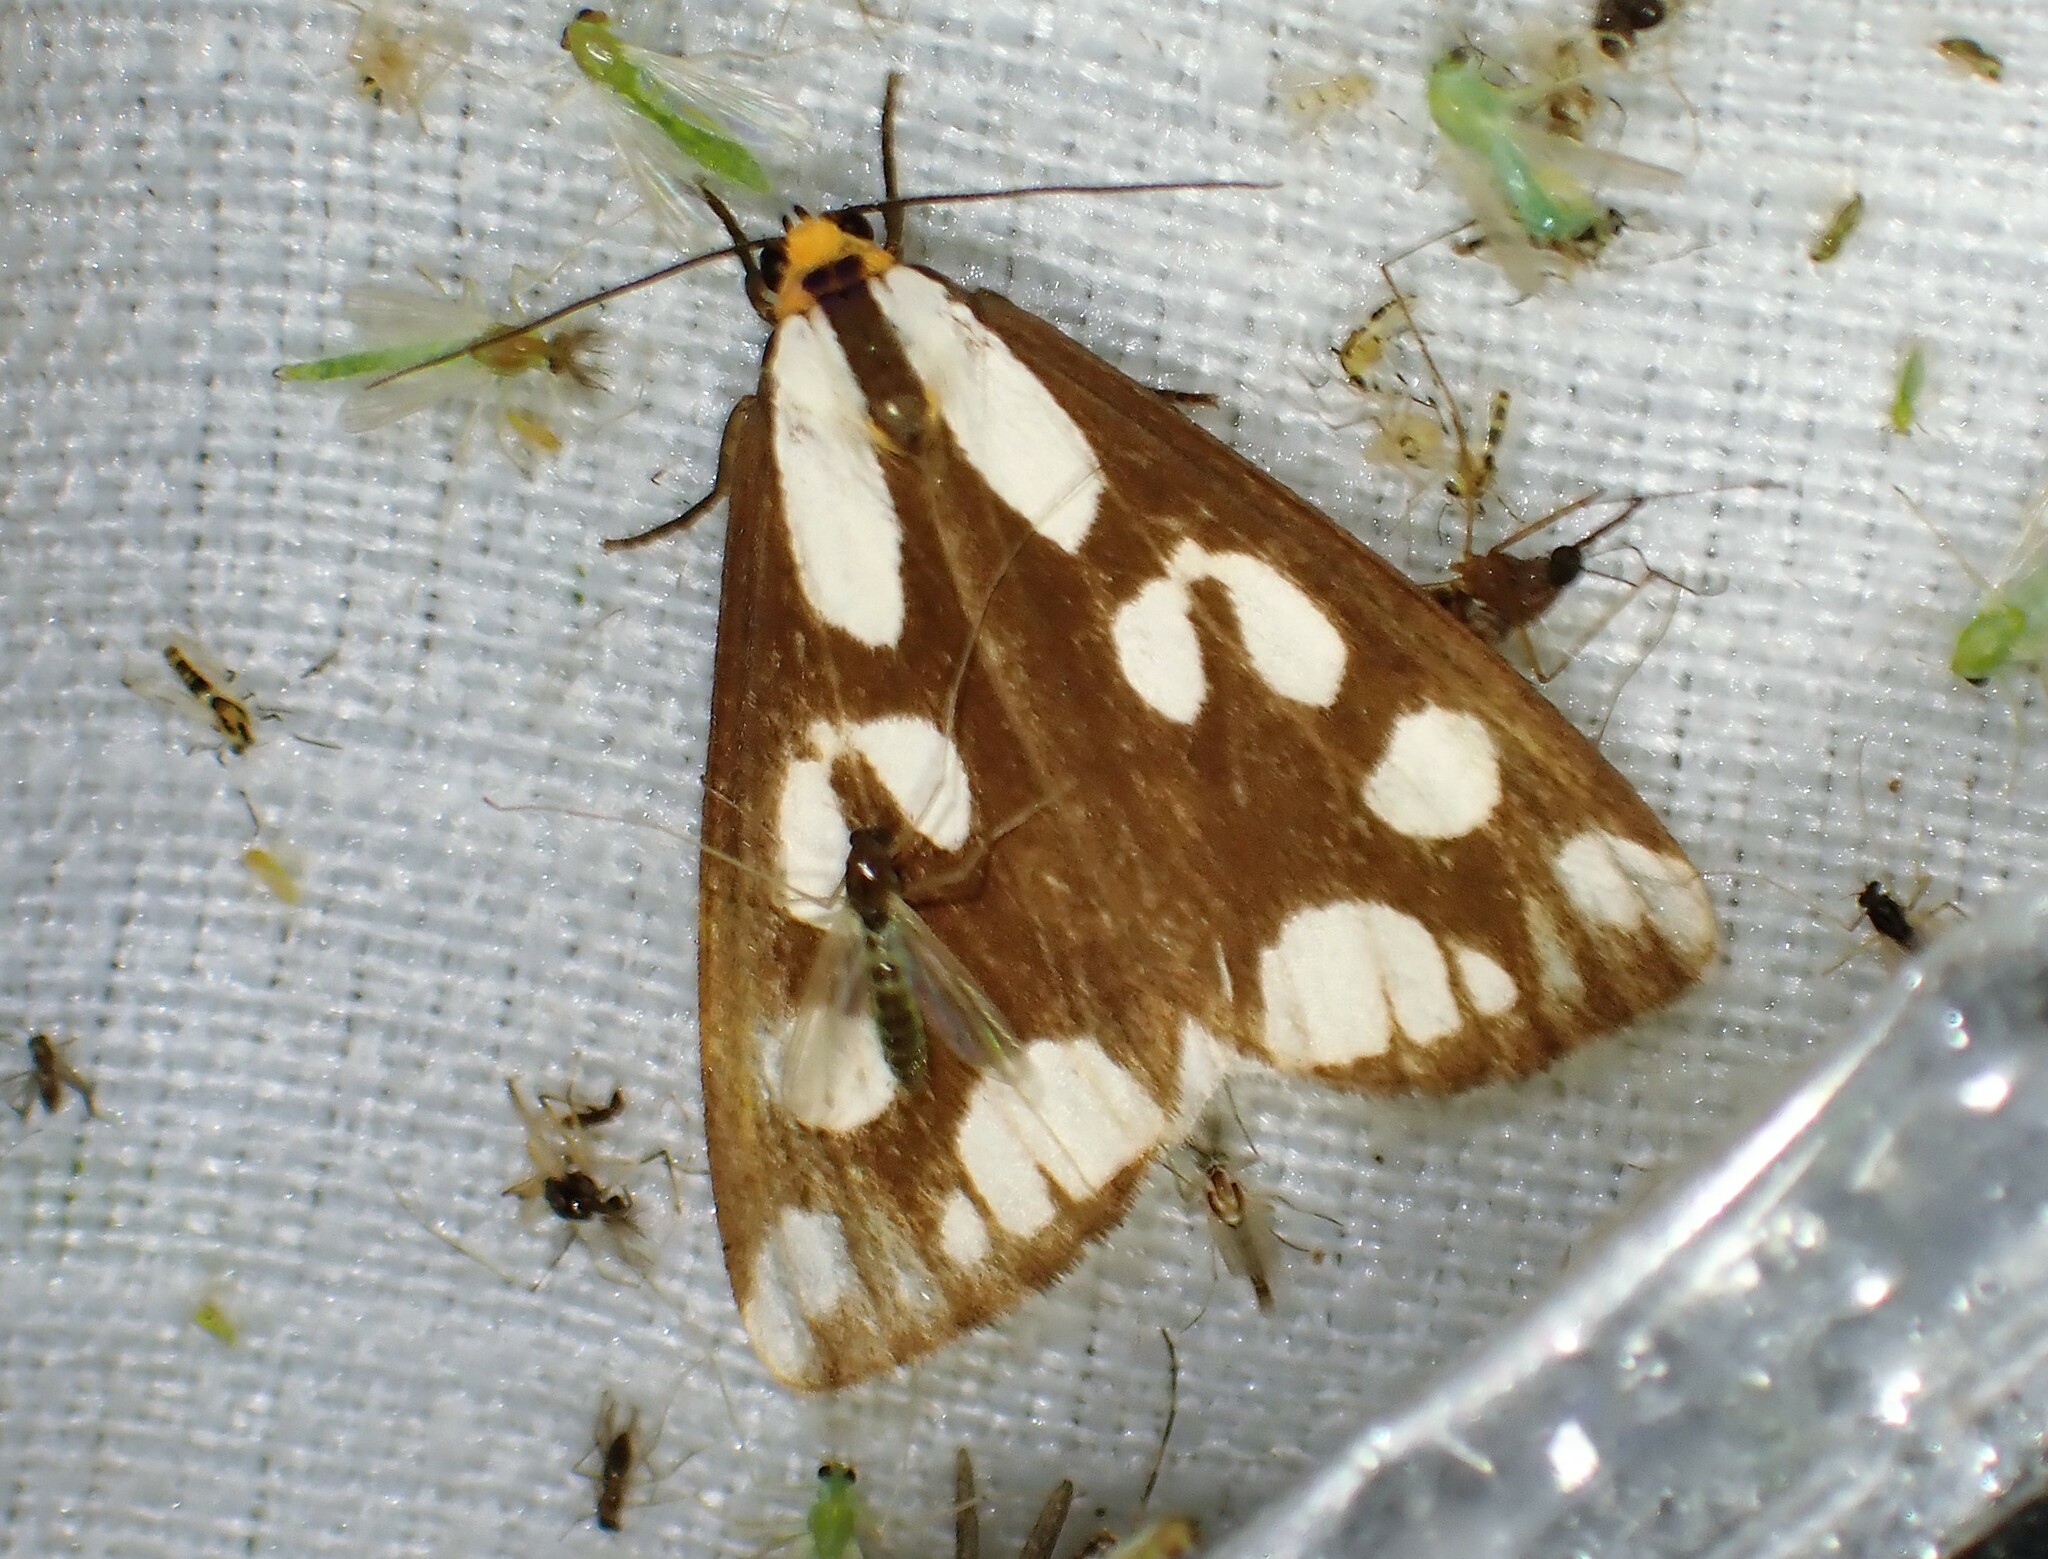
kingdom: Animalia
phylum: Arthropoda
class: Insecta
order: Lepidoptera
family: Erebidae
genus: Haploa
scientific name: Haploa confusa
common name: Confused haploa moth
